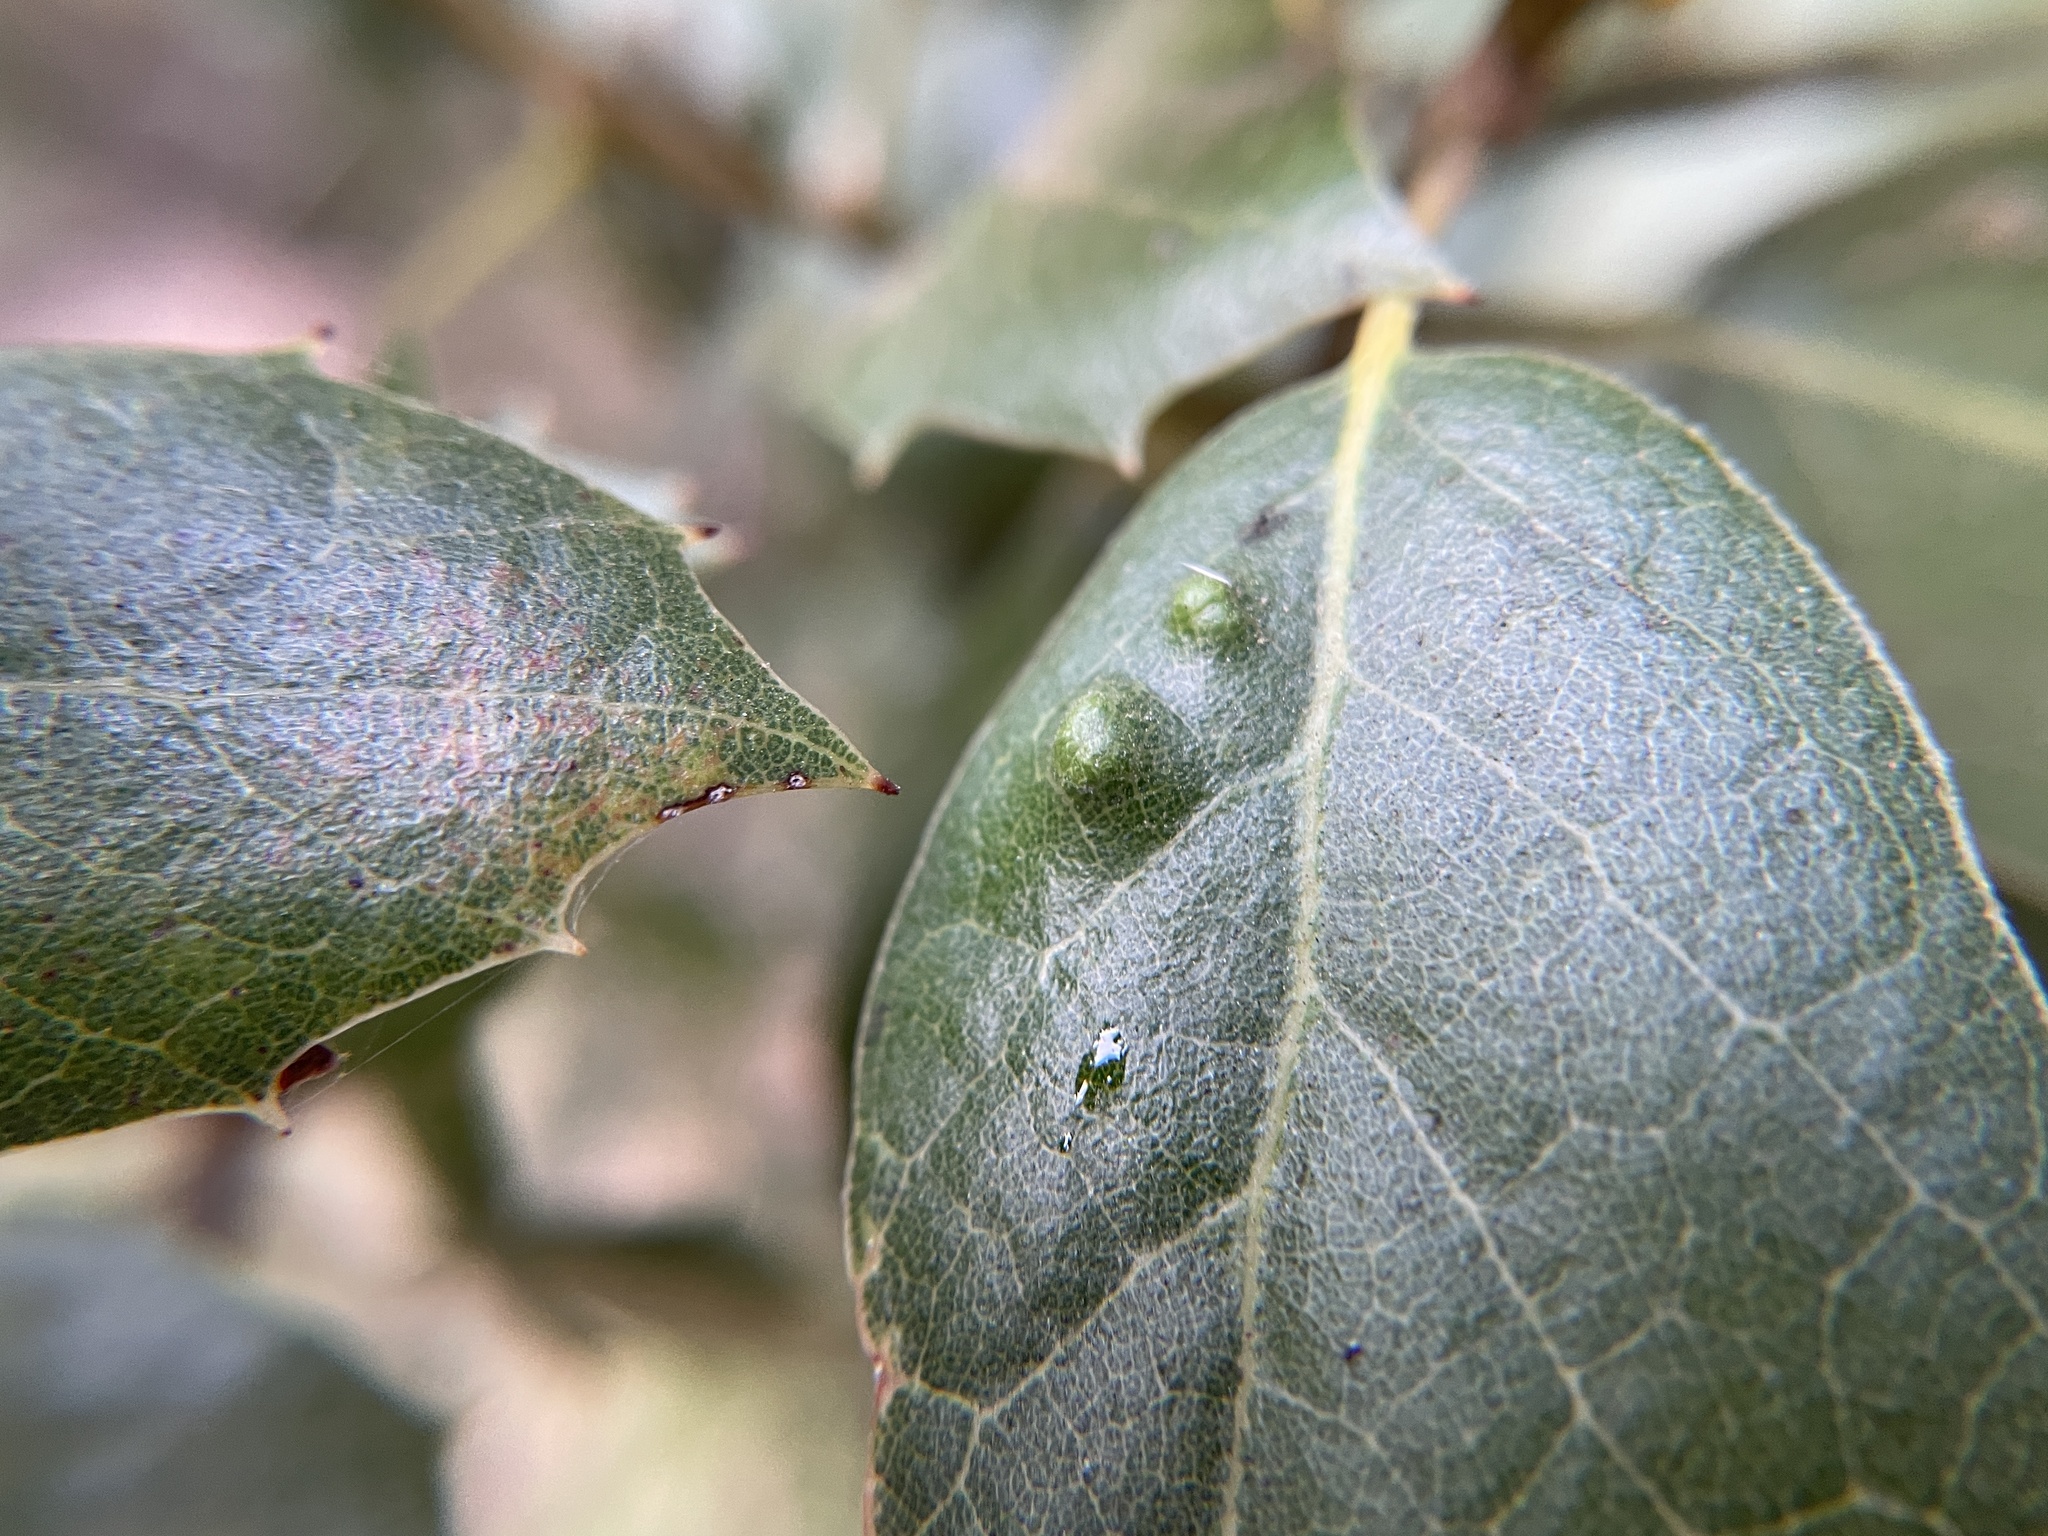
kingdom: Animalia
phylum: Arthropoda
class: Arachnida
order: Trombidiformes
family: Eriophyidae
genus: Aceria
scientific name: Aceria
